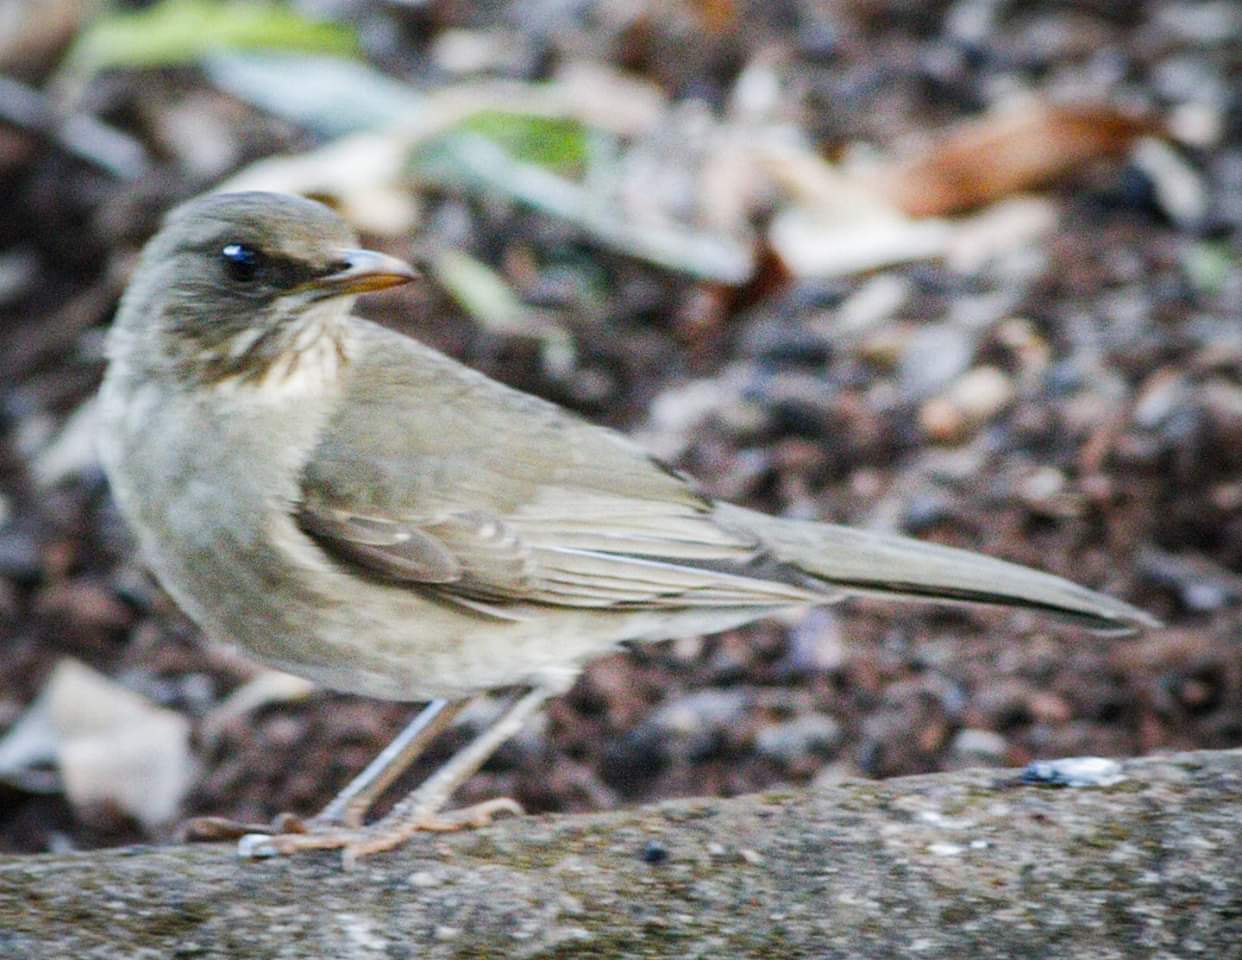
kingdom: Animalia
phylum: Chordata
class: Aves
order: Passeriformes
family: Turdidae
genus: Turdus
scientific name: Turdus amaurochalinus
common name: Creamy-bellied thrush
